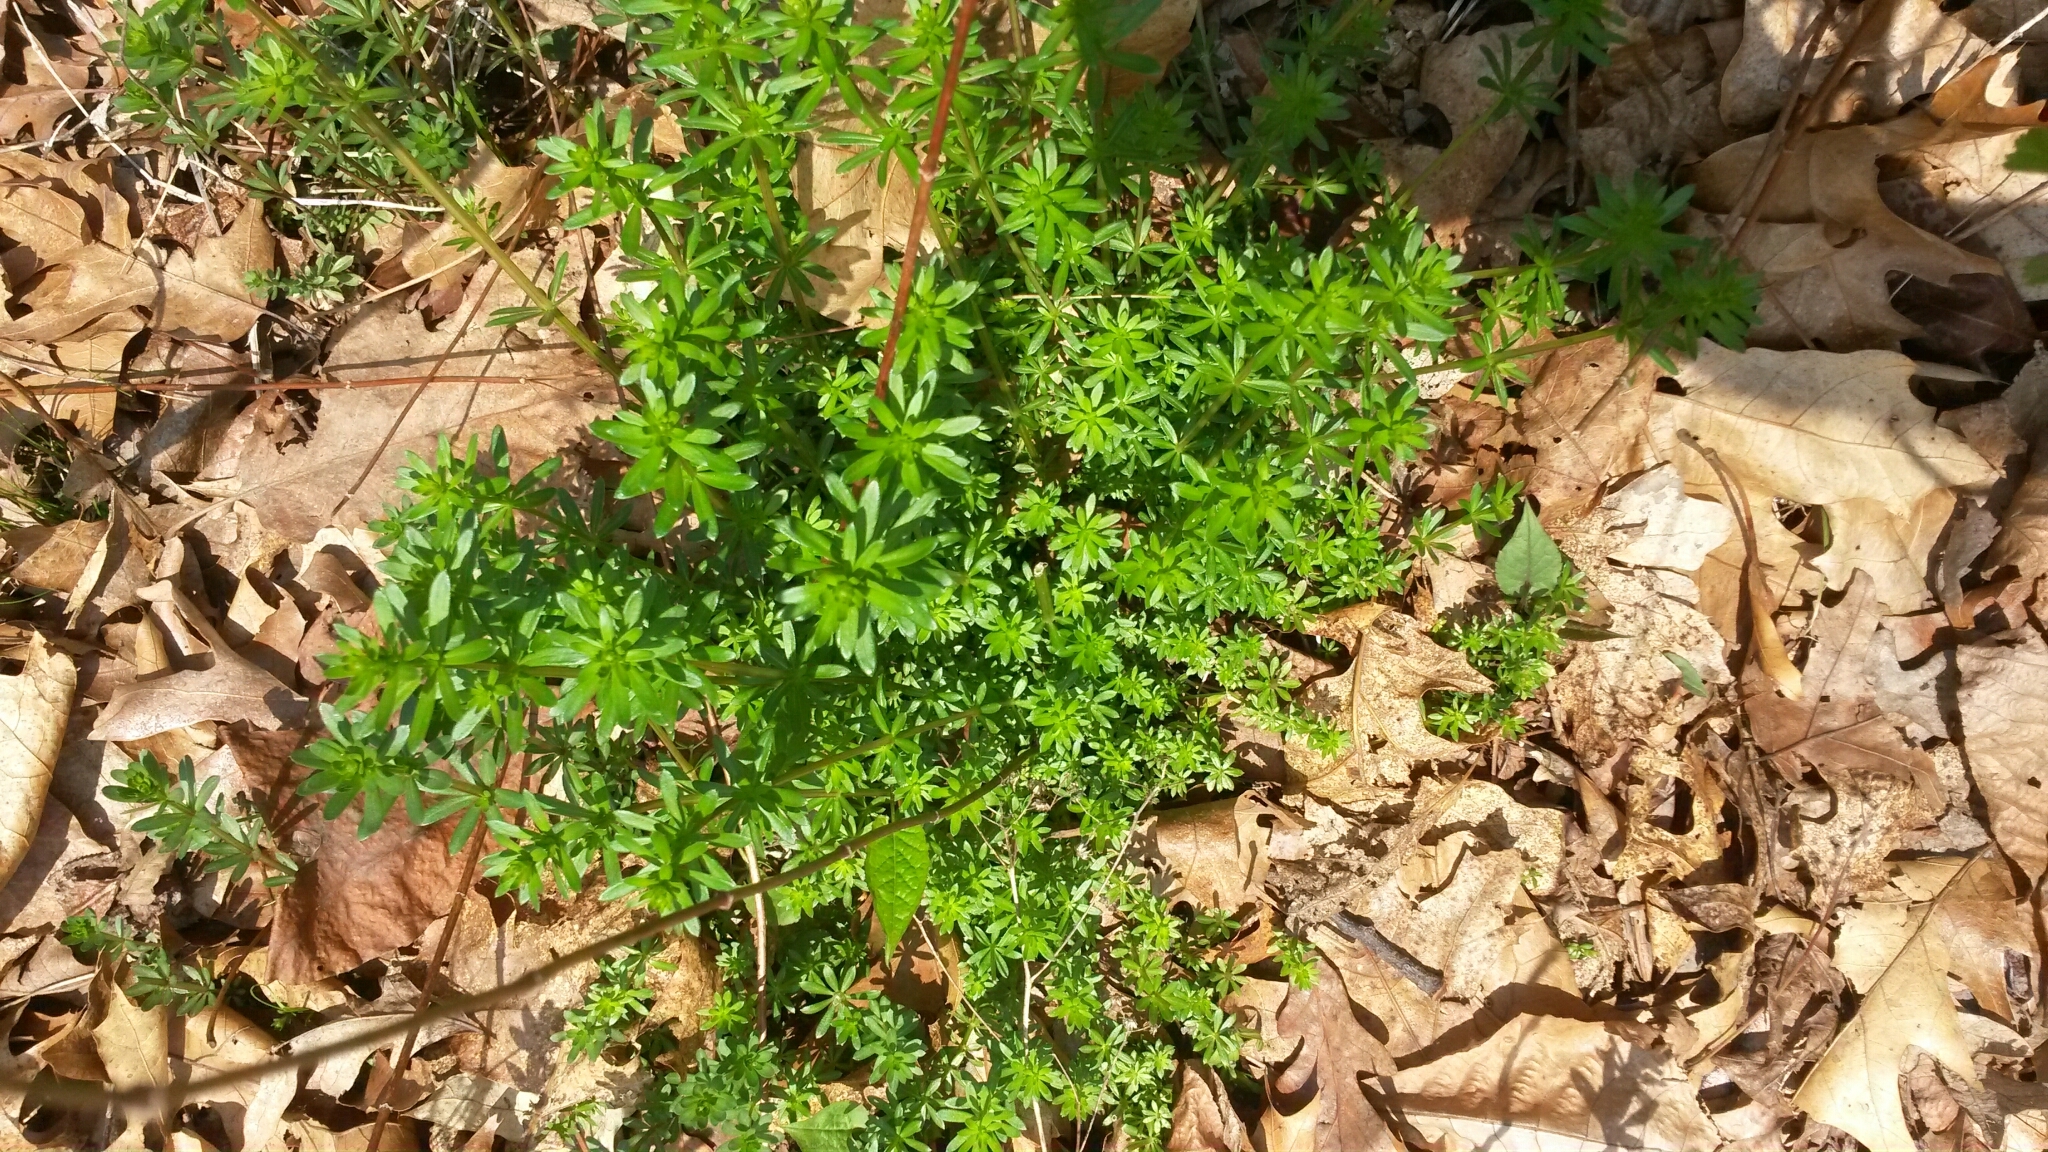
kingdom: Plantae
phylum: Tracheophyta
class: Magnoliopsida
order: Gentianales
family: Rubiaceae
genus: Galium
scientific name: Galium mollugo
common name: Hedge bedstraw
